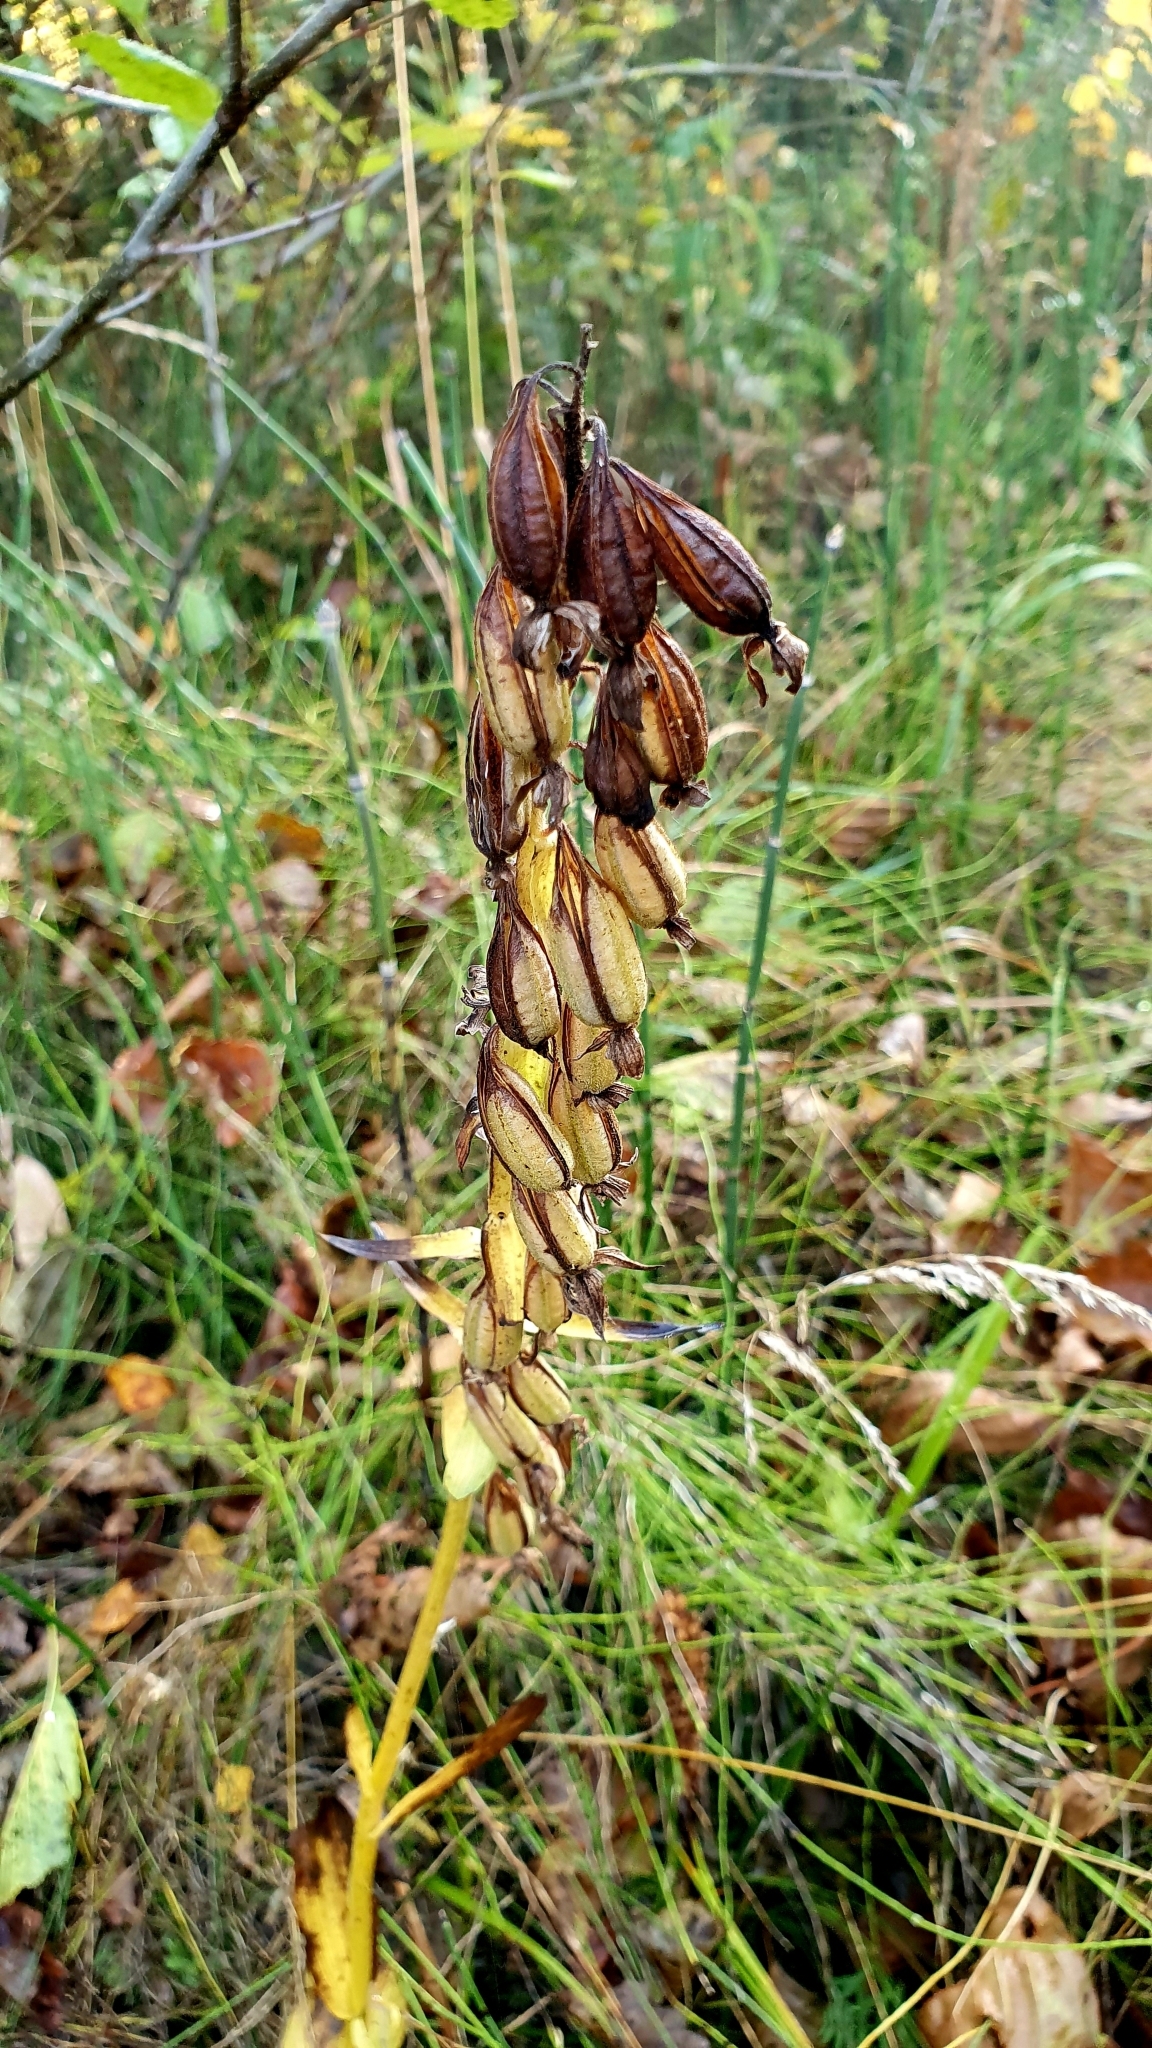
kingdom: Plantae
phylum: Tracheophyta
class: Liliopsida
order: Asparagales
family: Orchidaceae
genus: Epipactis
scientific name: Epipactis palustris
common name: Marsh helleborine
